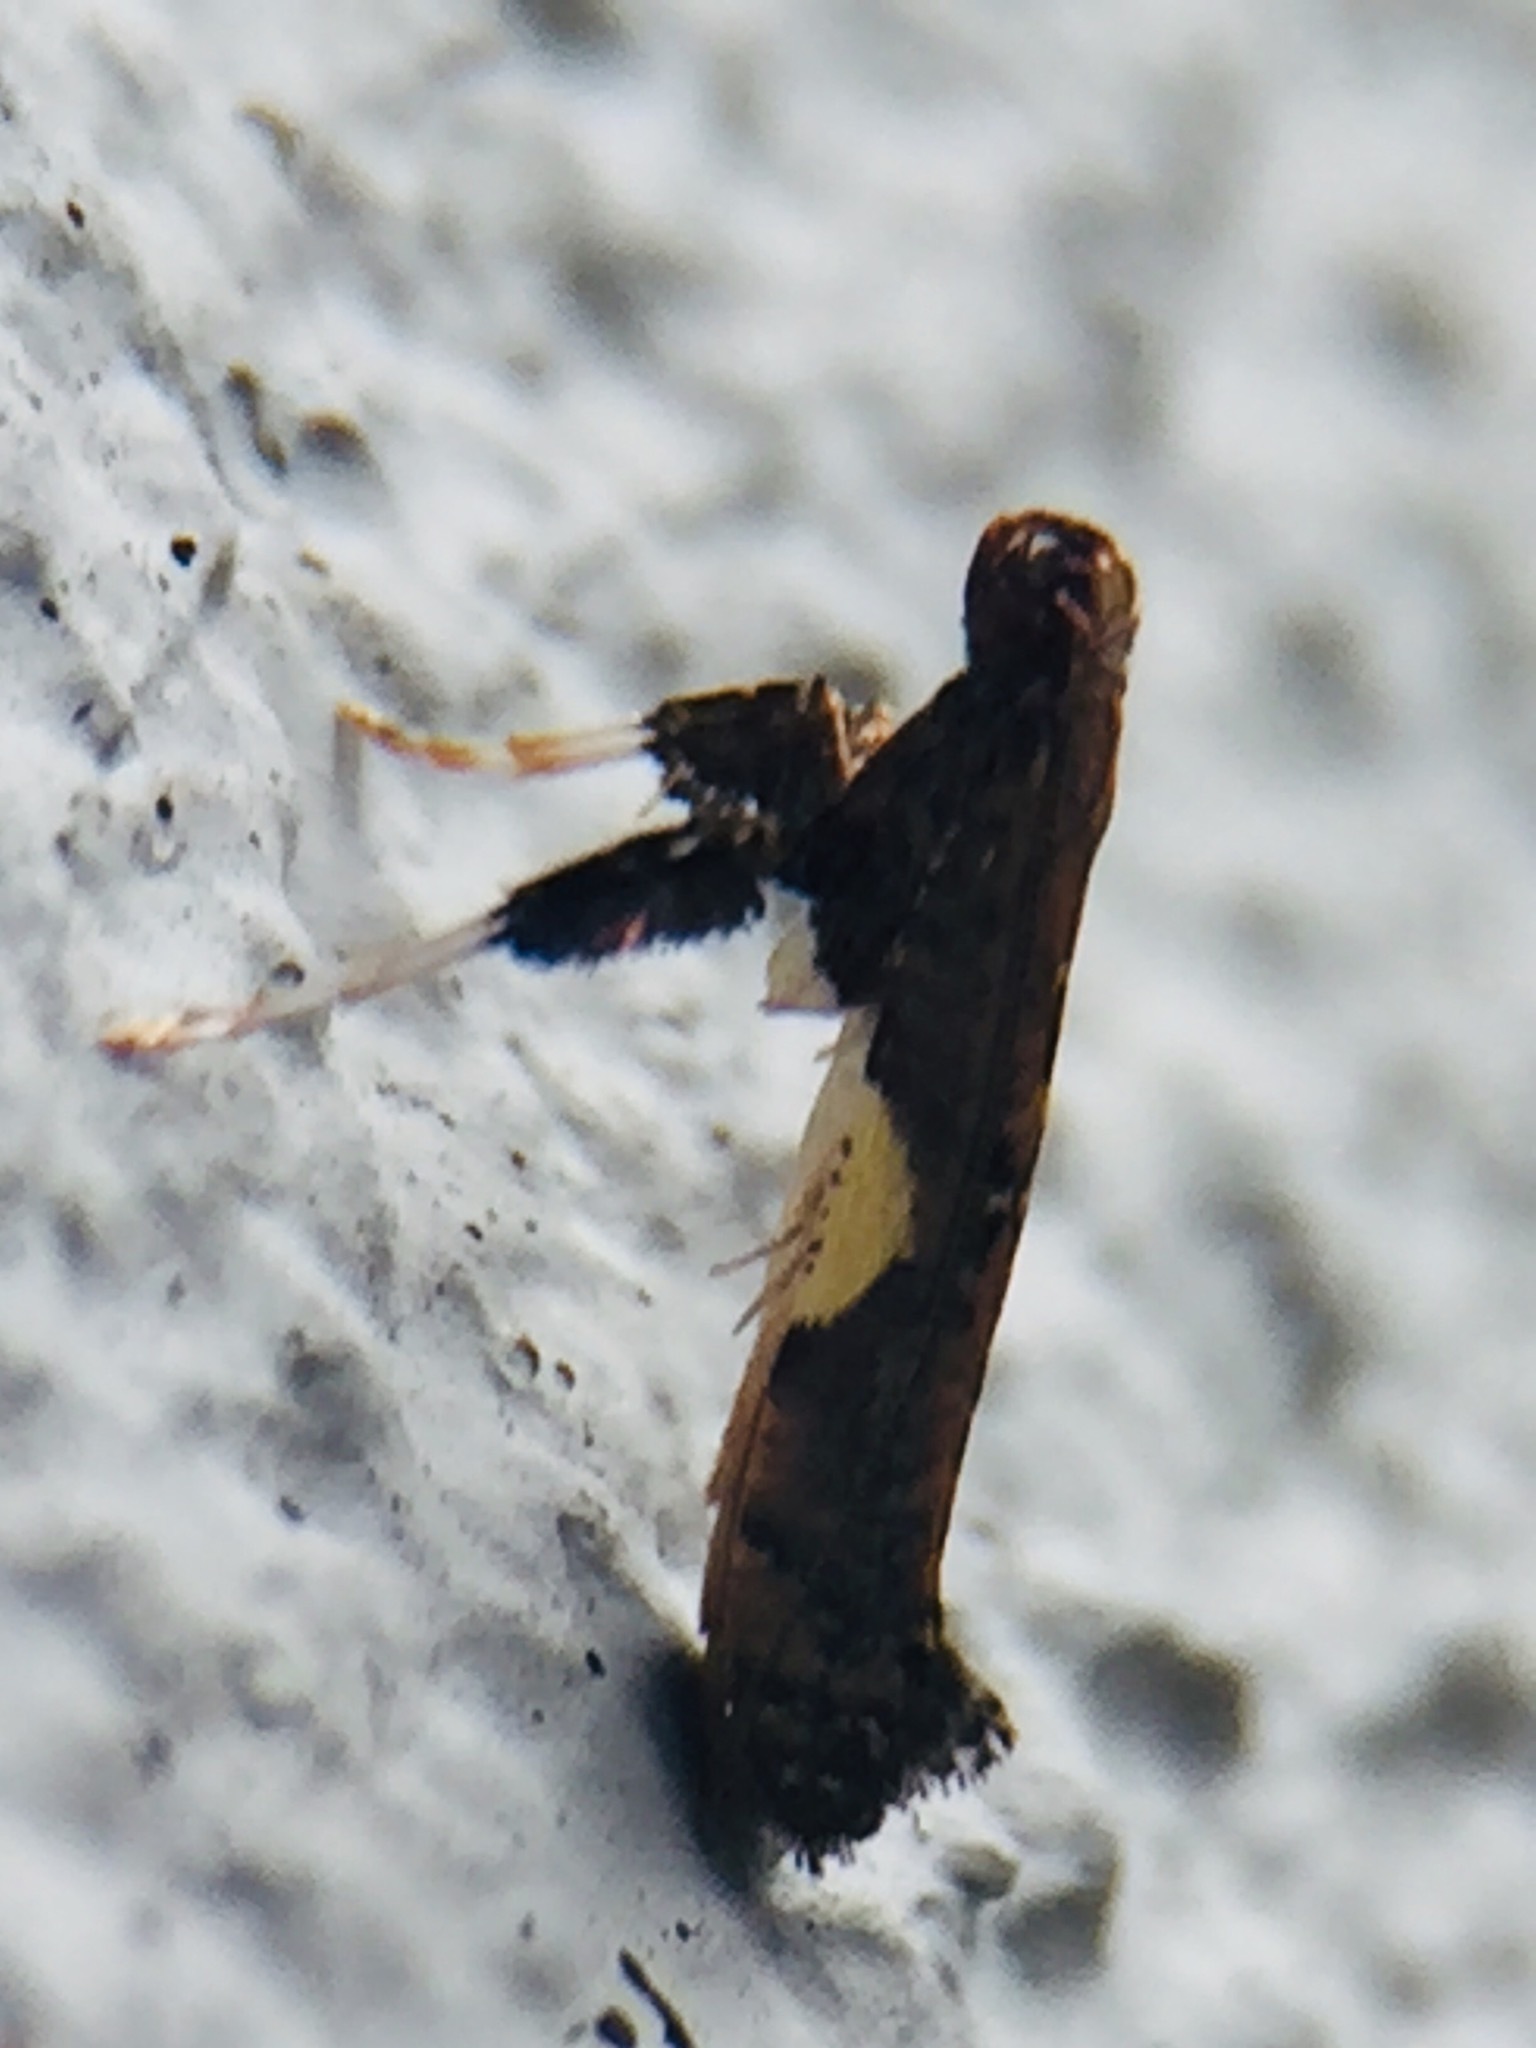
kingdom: Animalia
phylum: Arthropoda
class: Insecta
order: Lepidoptera
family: Gracillariidae
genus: Caloptilia
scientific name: Caloptilia chalcodelta
